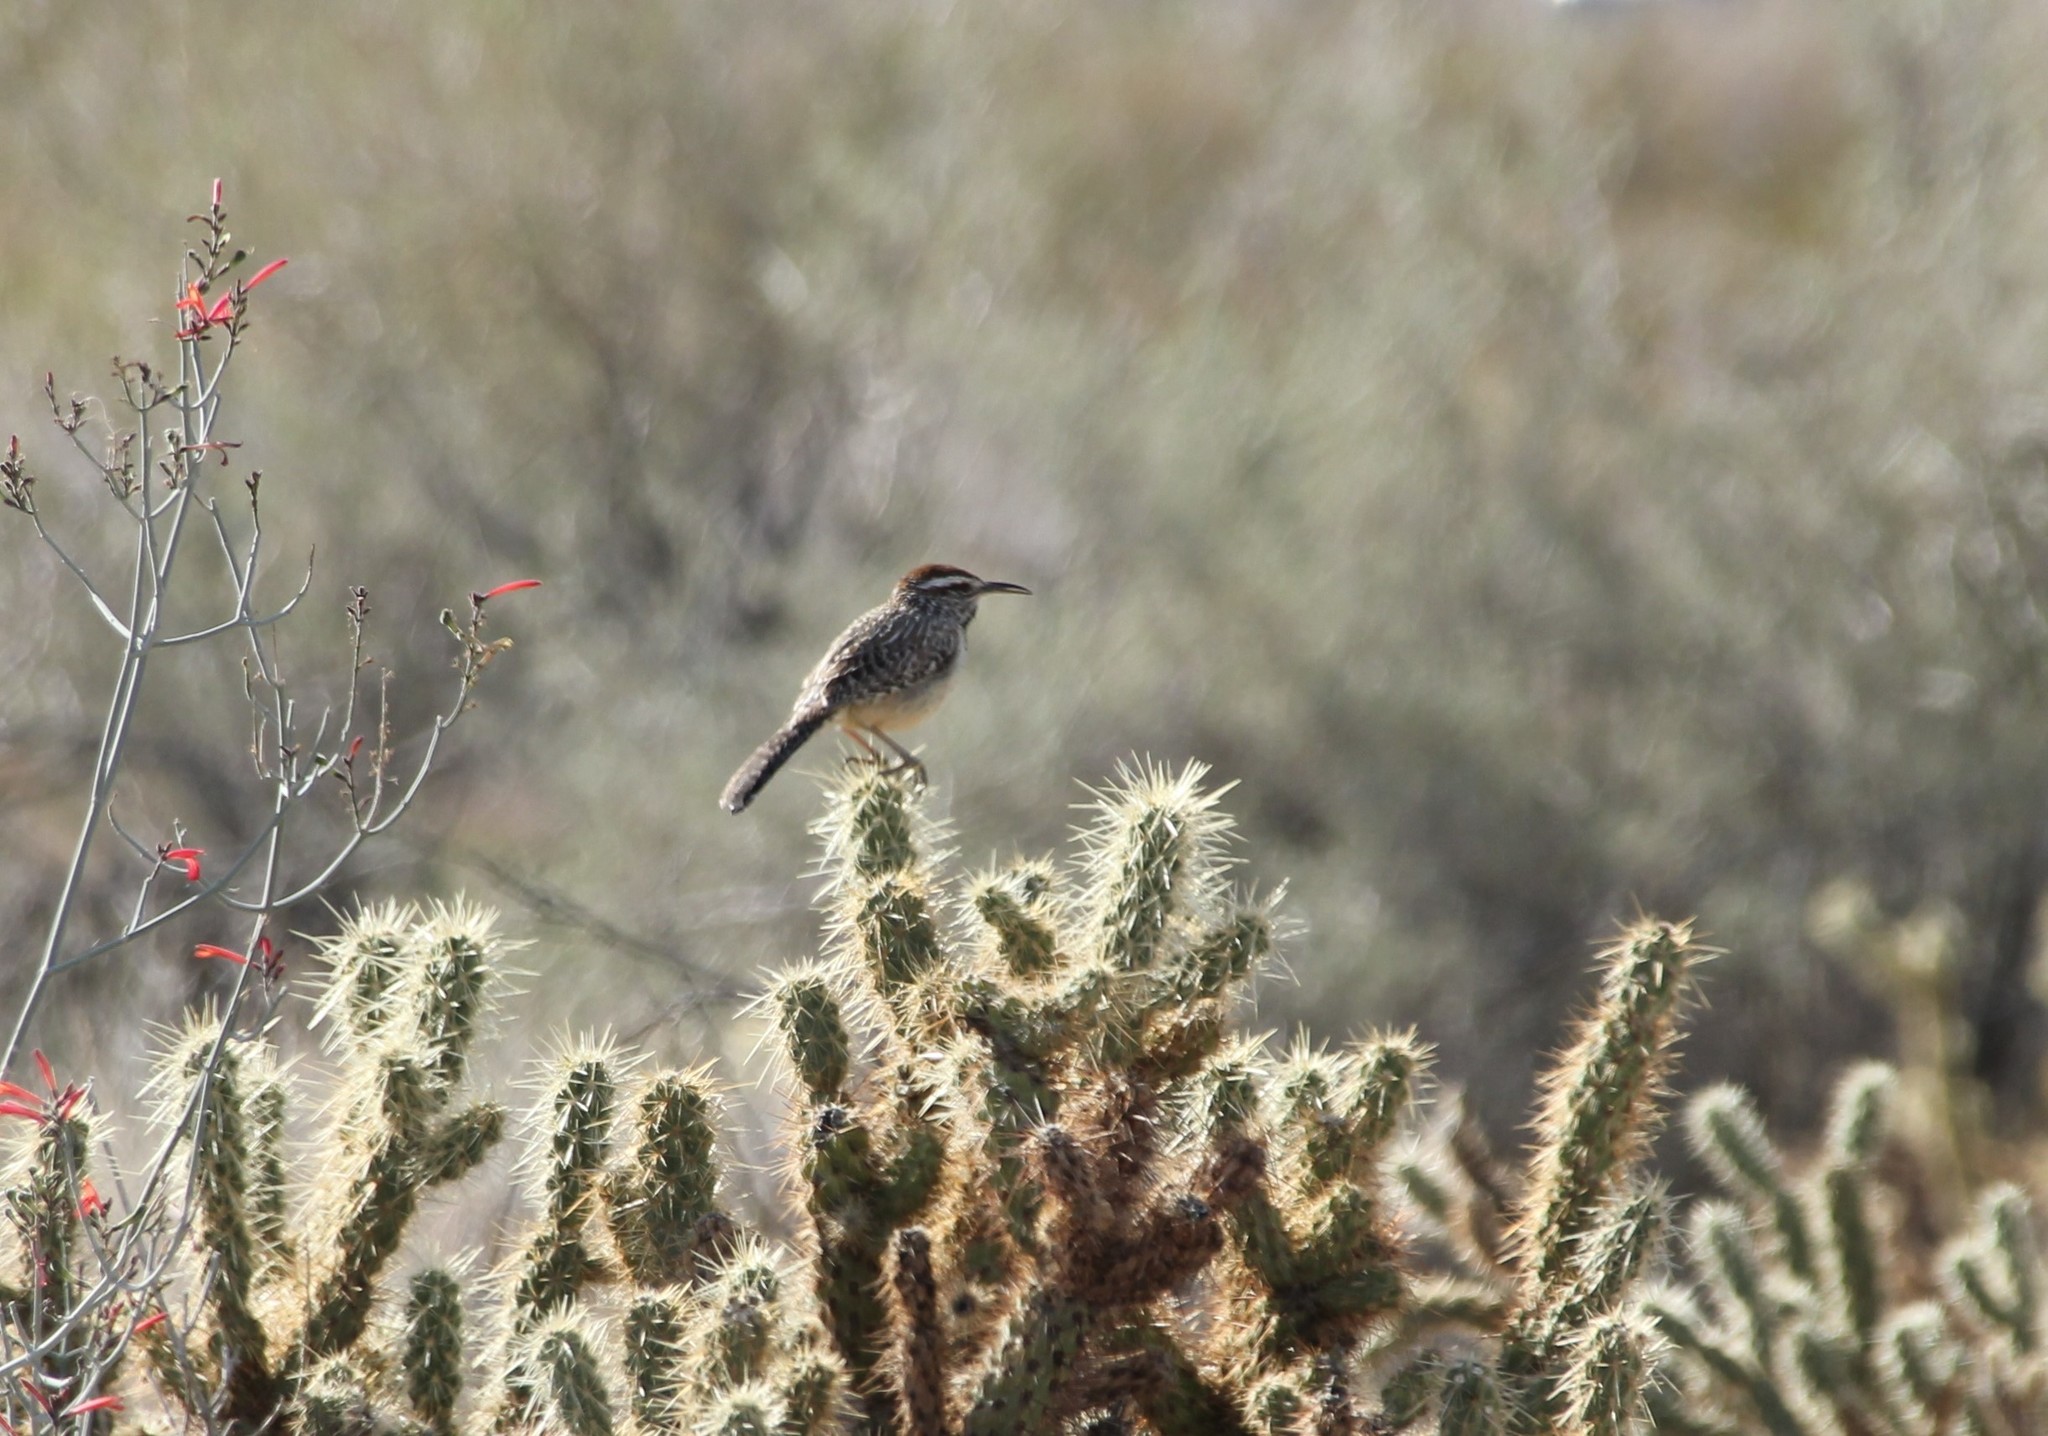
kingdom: Animalia
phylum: Chordata
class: Aves
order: Passeriformes
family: Troglodytidae
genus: Campylorhynchus
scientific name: Campylorhynchus brunneicapillus
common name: Cactus wren
